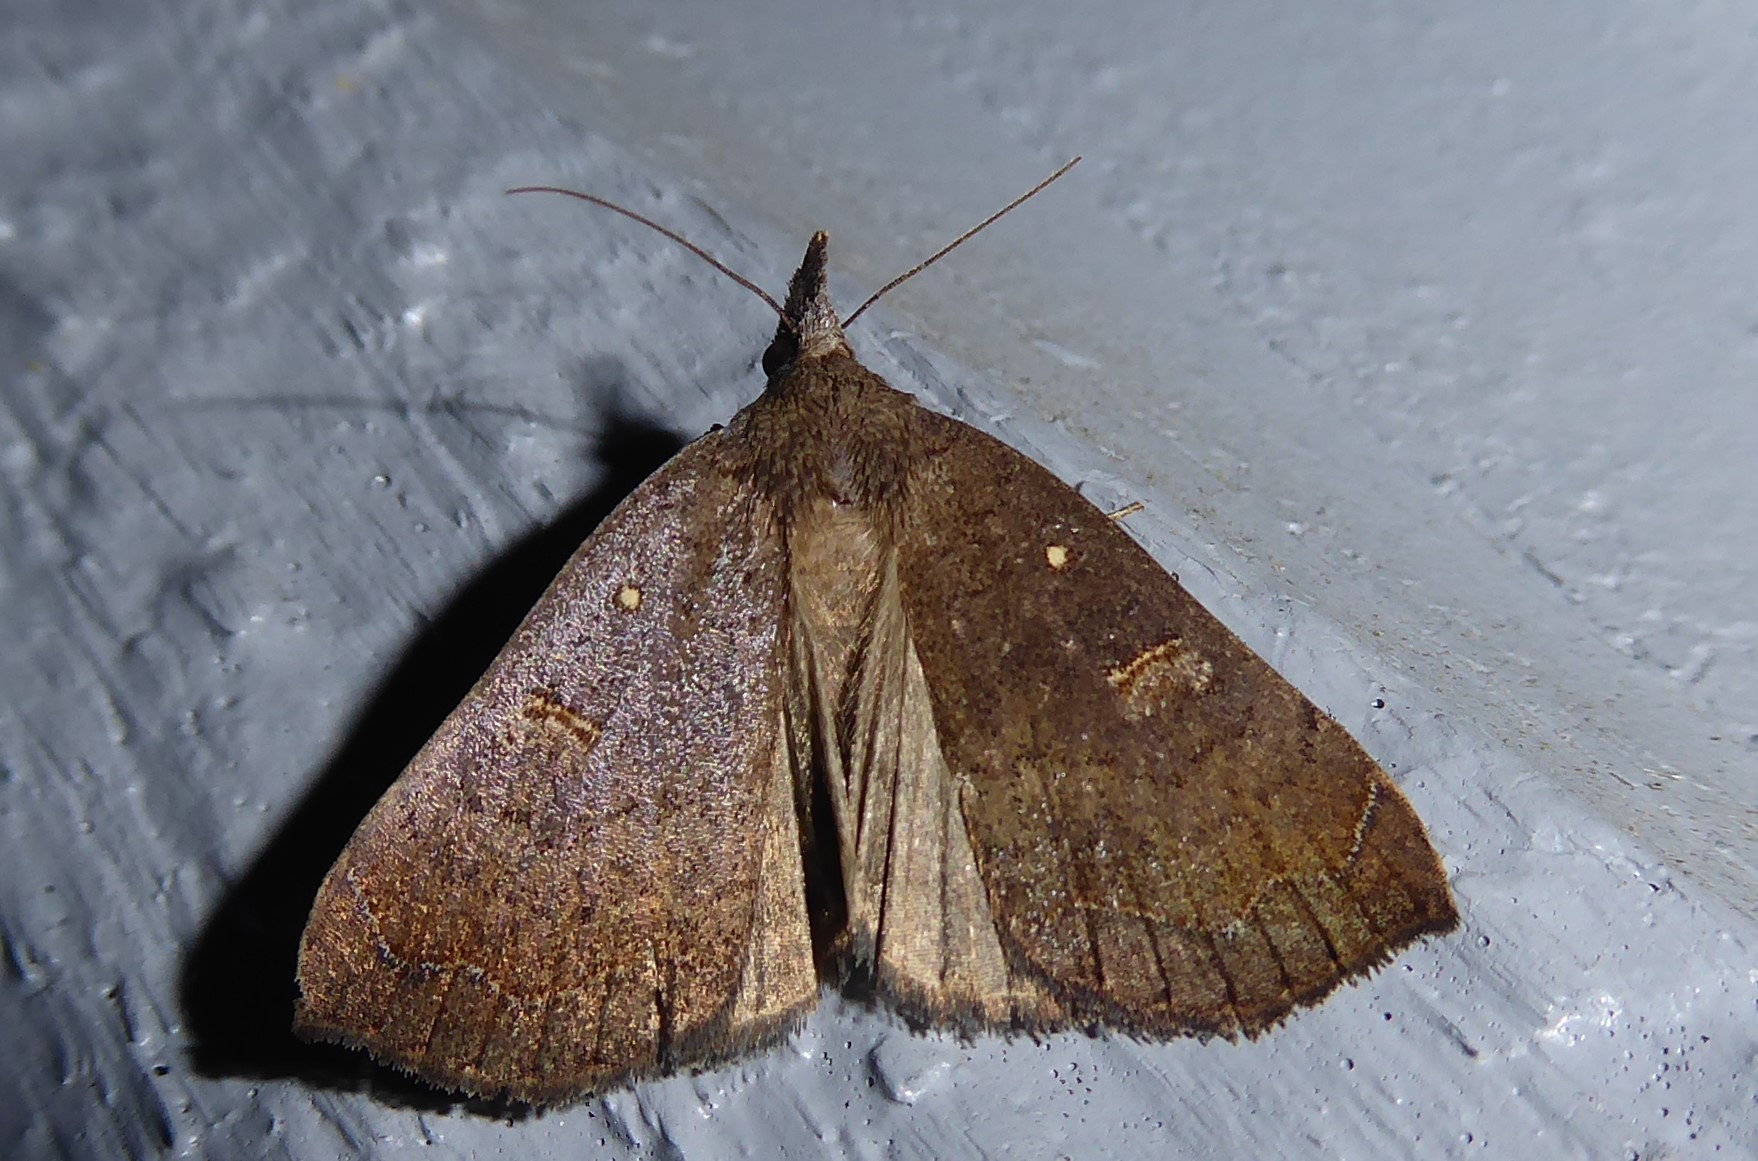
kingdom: Animalia
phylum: Arthropoda
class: Insecta
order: Lepidoptera
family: Erebidae
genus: Rhapsa
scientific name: Rhapsa scotosialis
